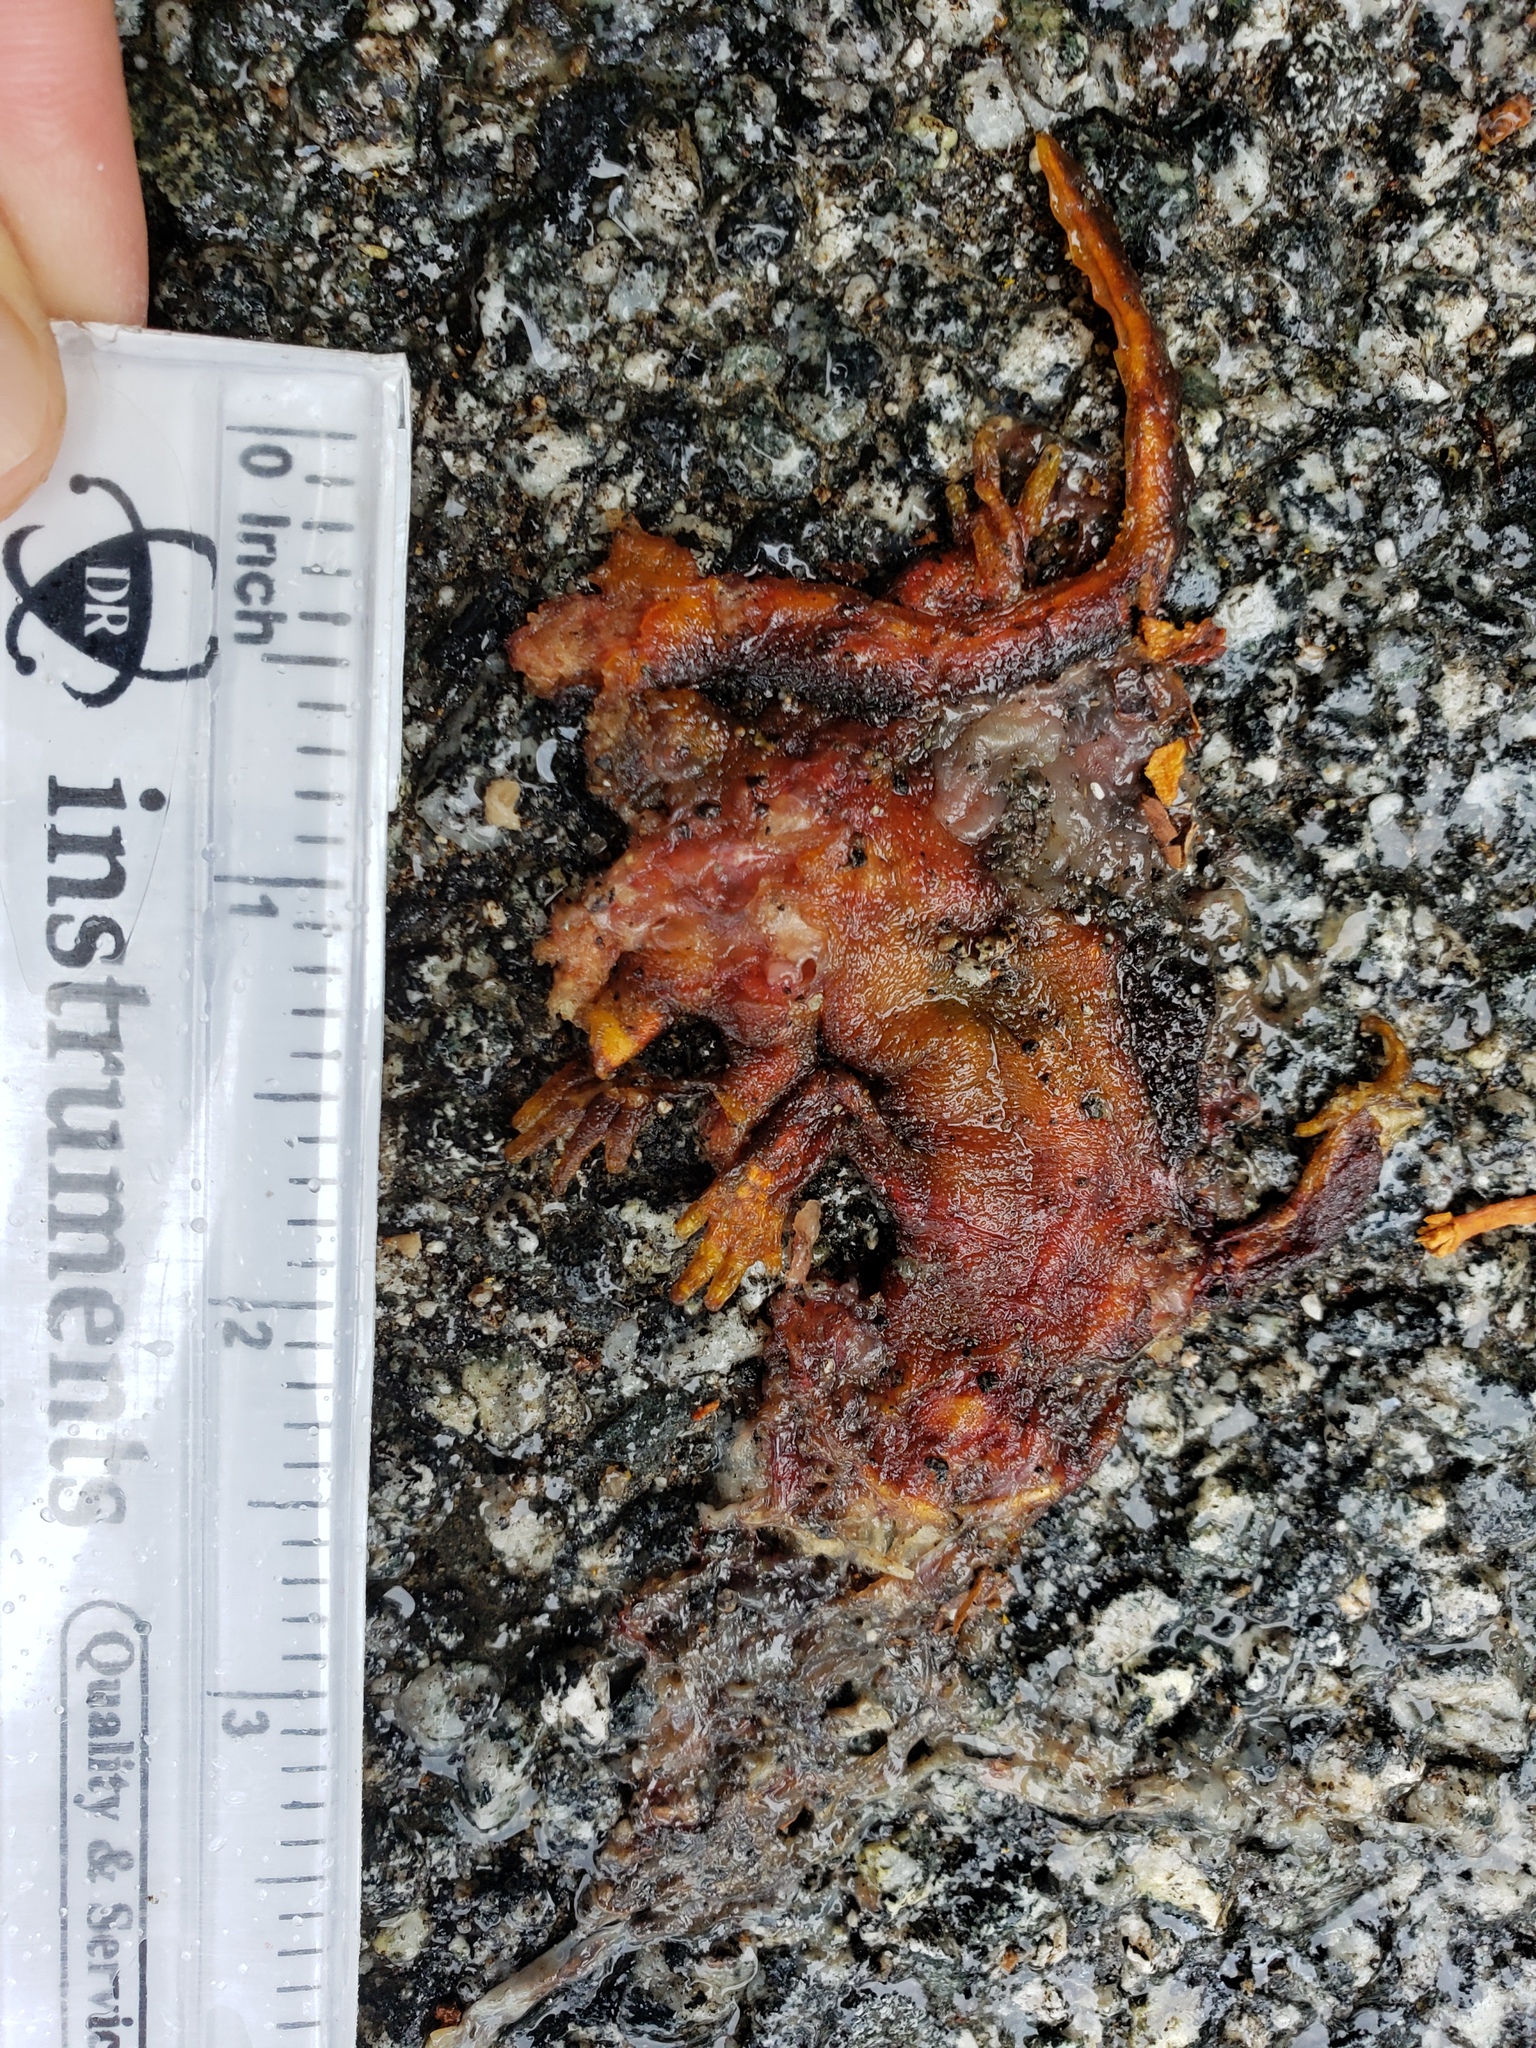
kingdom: Animalia
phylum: Chordata
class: Amphibia
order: Caudata
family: Salamandridae
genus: Taricha
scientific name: Taricha
